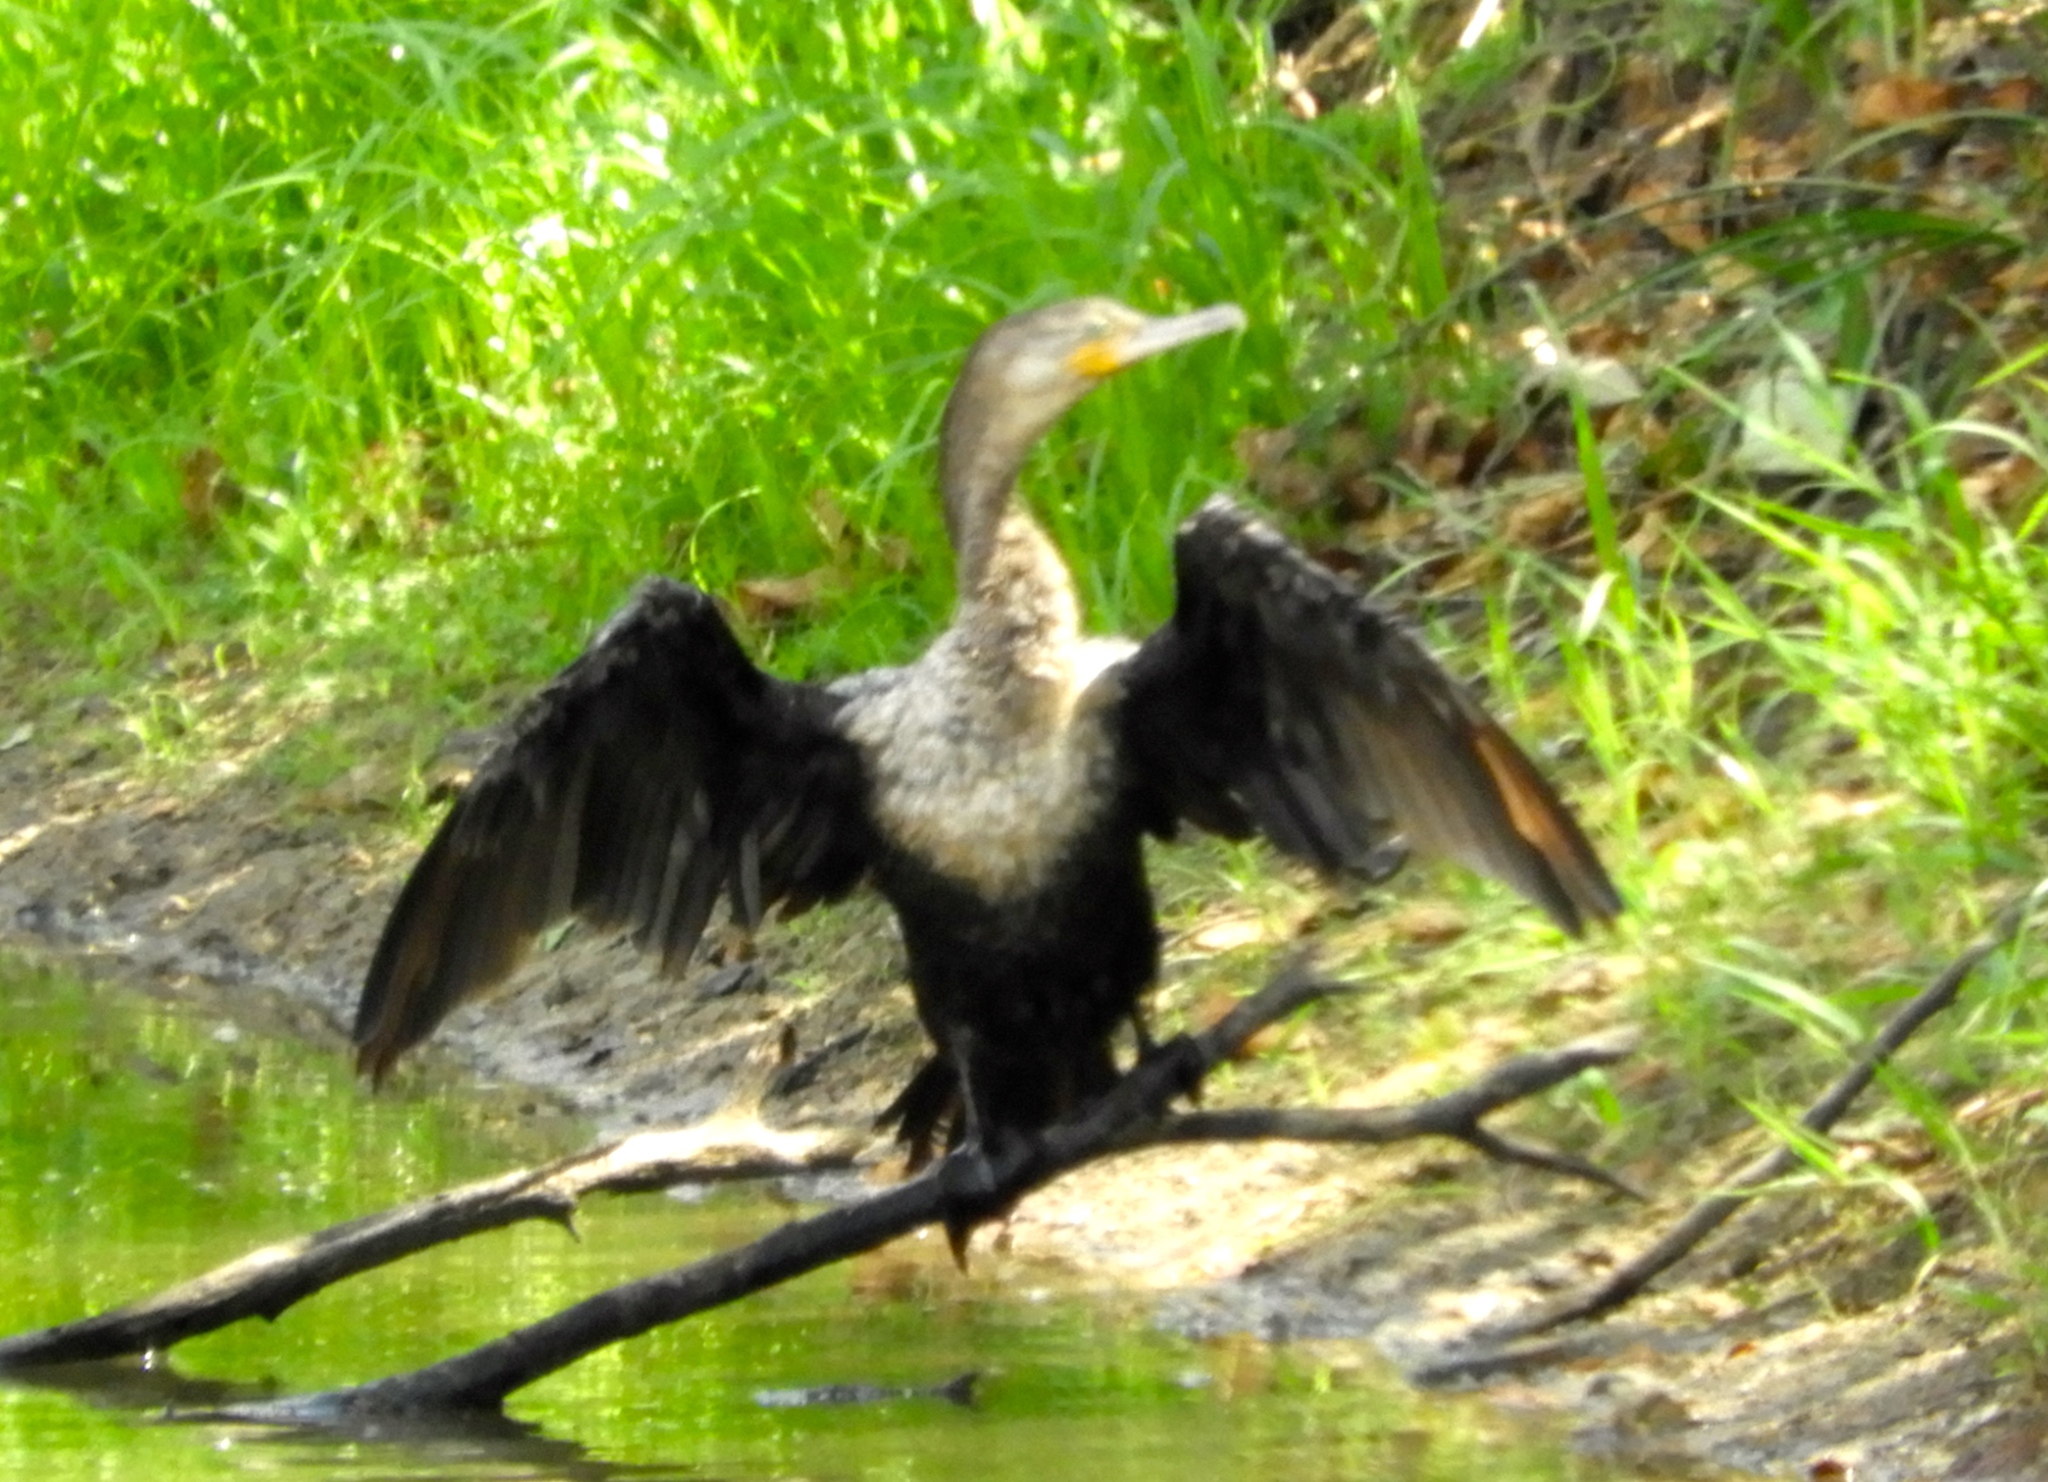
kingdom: Animalia
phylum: Chordata
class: Aves
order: Suliformes
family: Phalacrocoracidae
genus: Phalacrocorax
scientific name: Phalacrocorax brasilianus
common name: Neotropic cormorant
